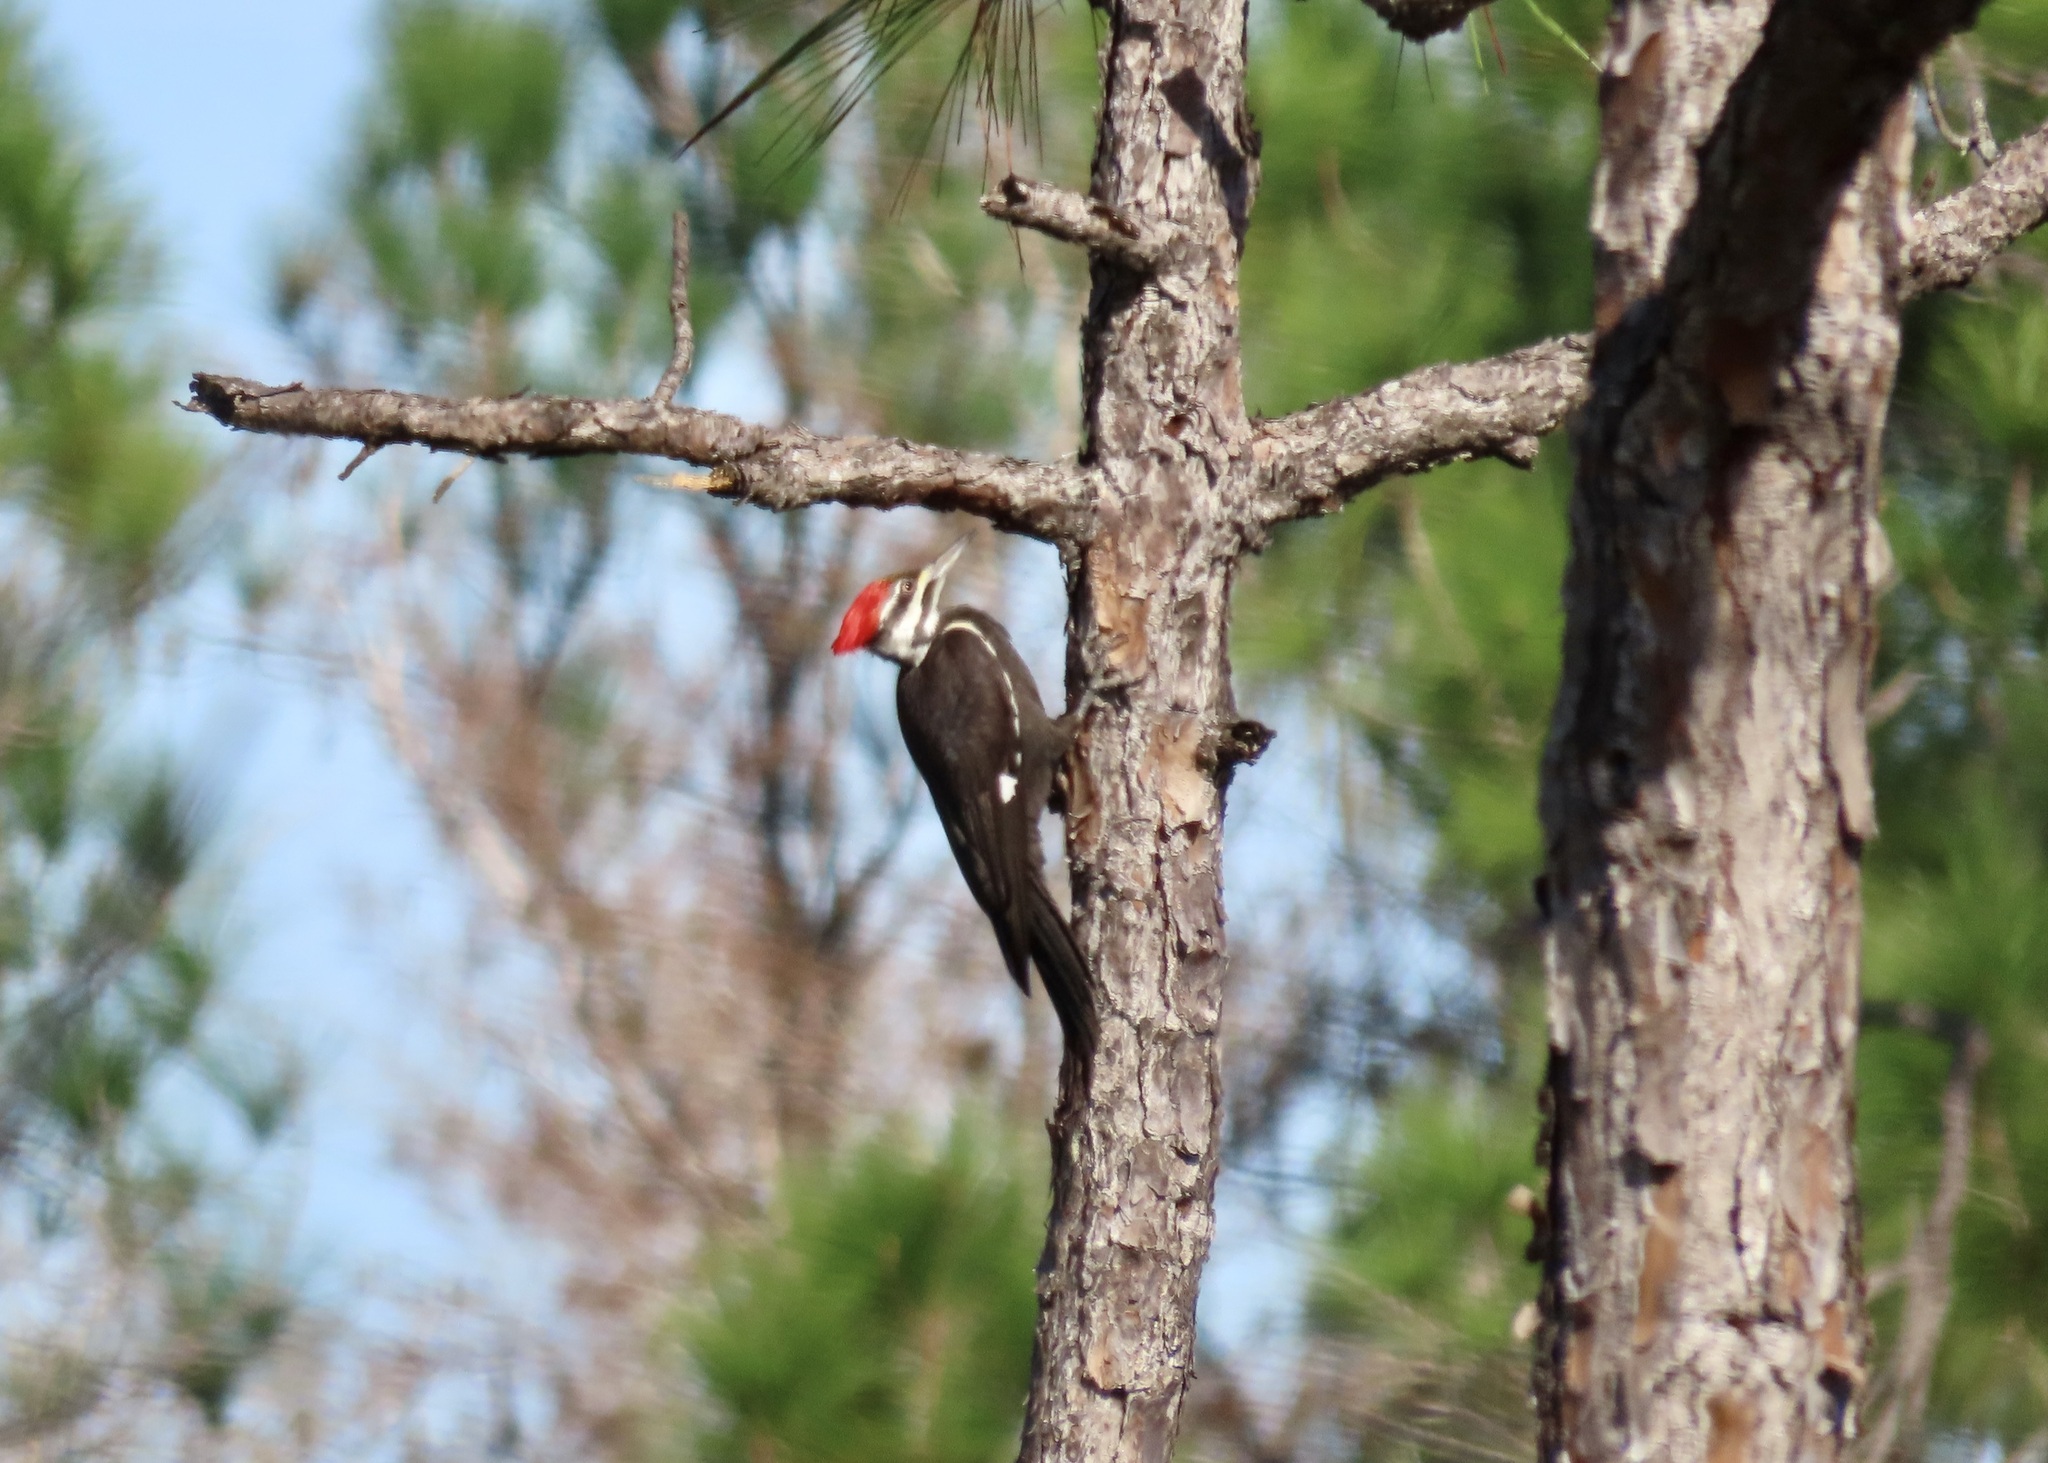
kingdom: Animalia
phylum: Chordata
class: Aves
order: Piciformes
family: Picidae
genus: Dryocopus
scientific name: Dryocopus pileatus
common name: Pileated woodpecker
